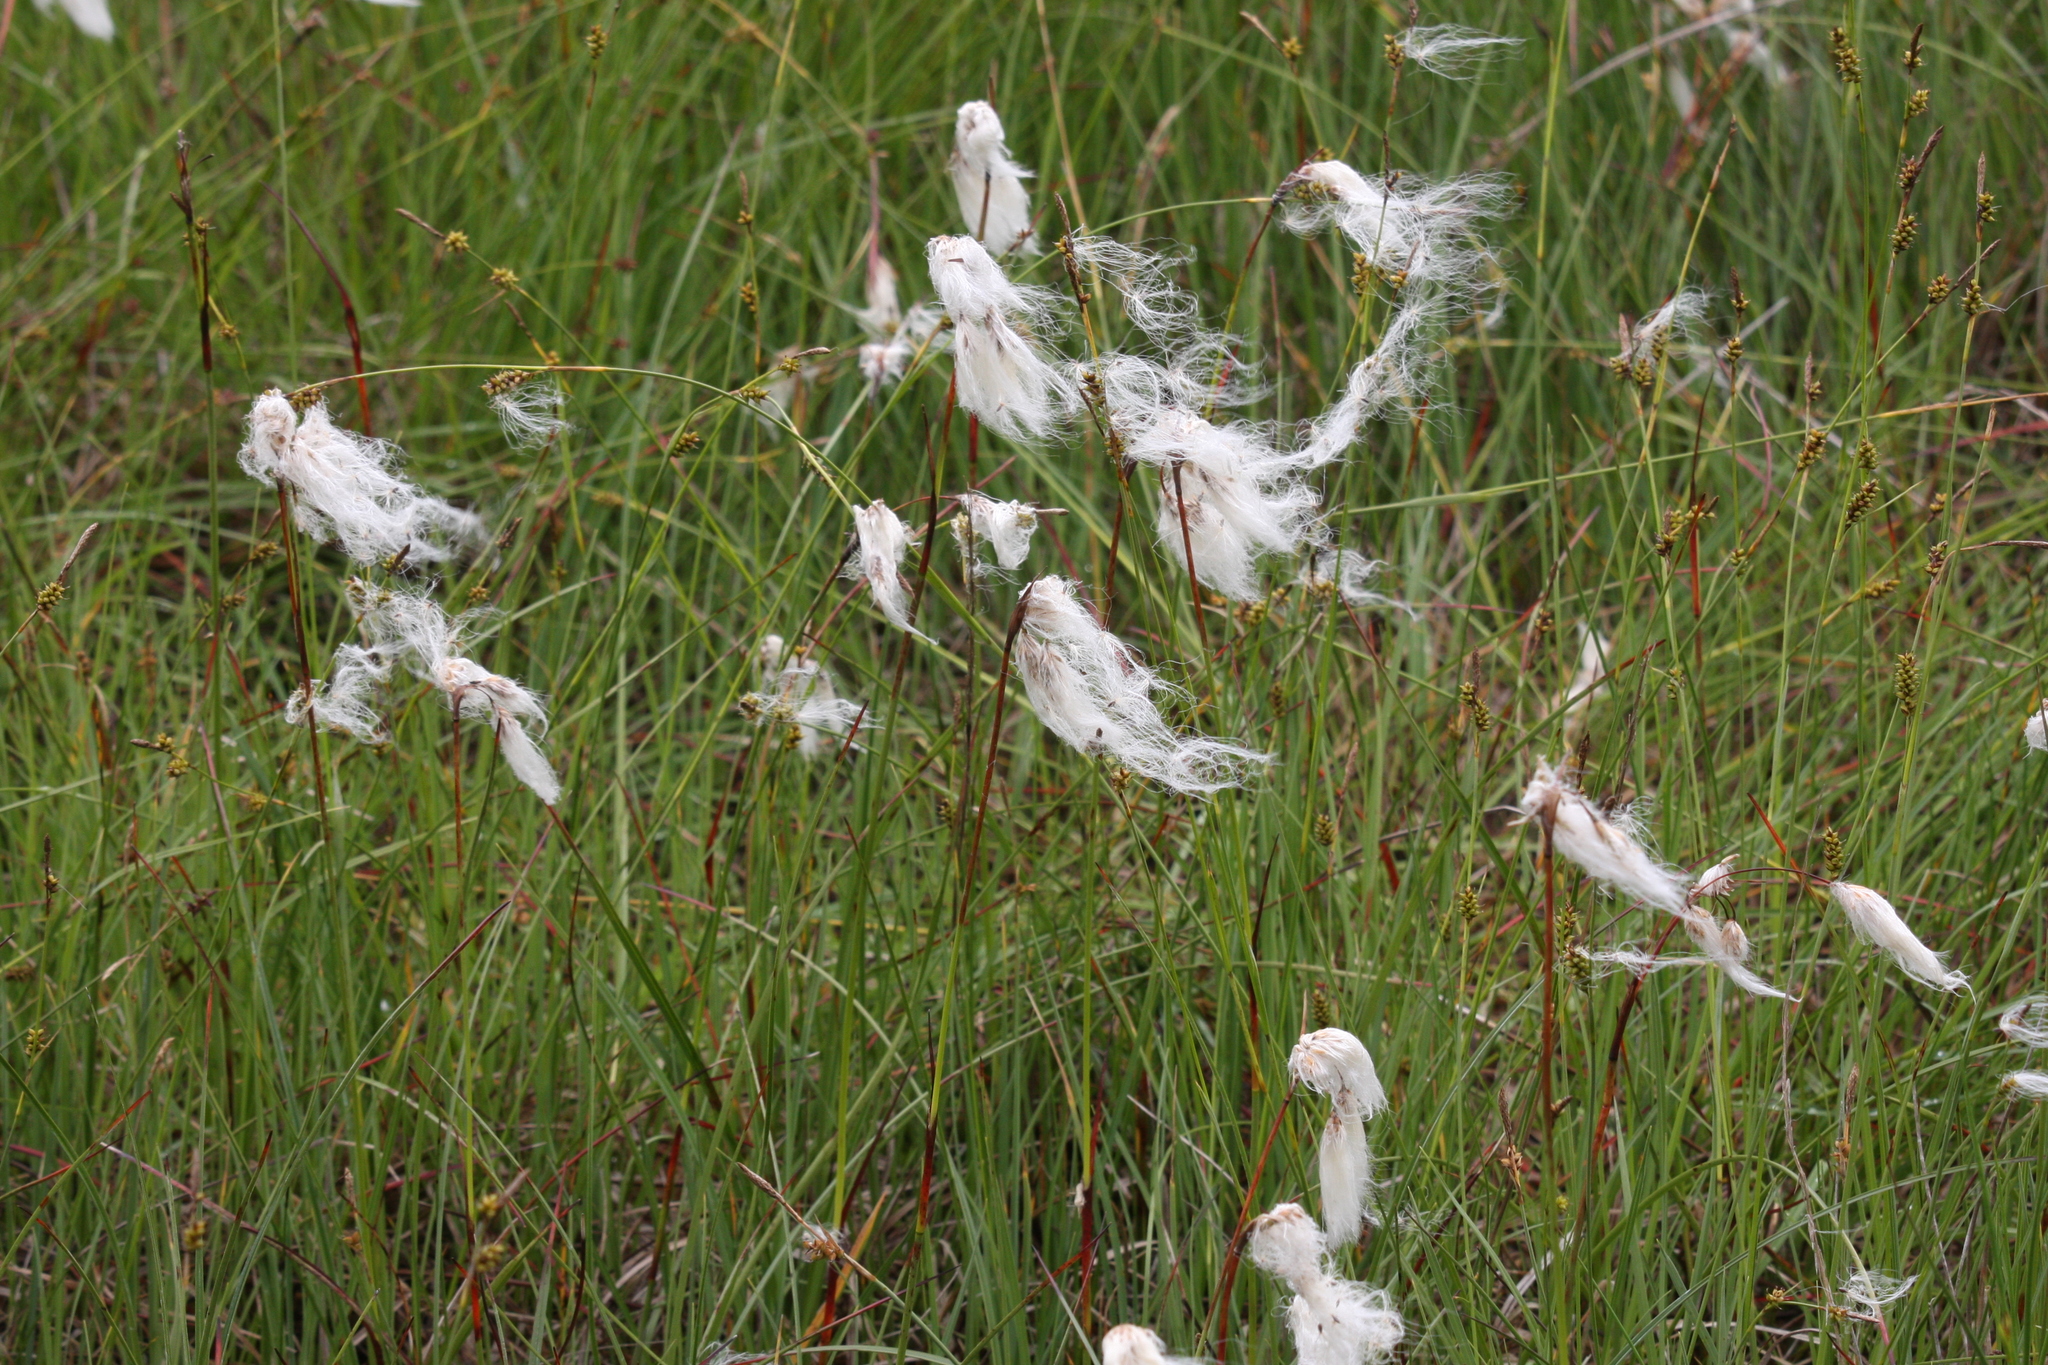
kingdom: Plantae
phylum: Tracheophyta
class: Liliopsida
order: Poales
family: Cyperaceae
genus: Eriophorum
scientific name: Eriophorum angustifolium
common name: Common cottongrass
